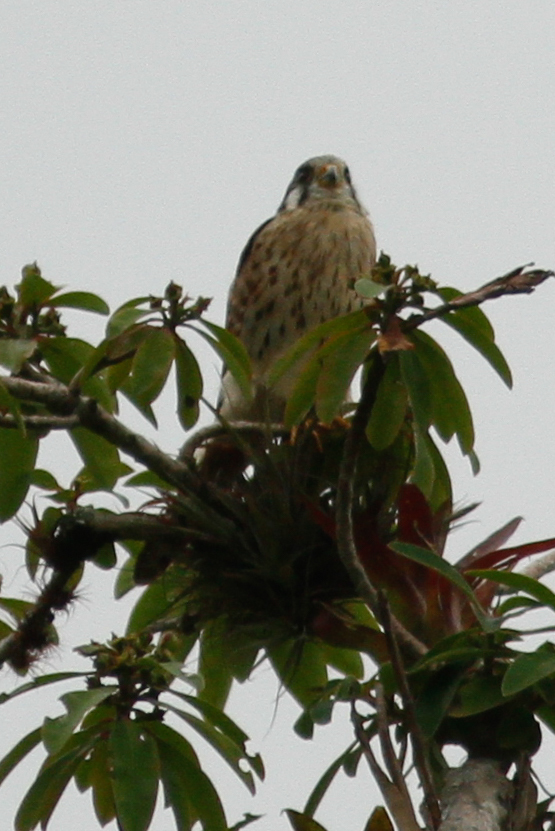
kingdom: Animalia
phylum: Chordata
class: Aves
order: Falconiformes
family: Falconidae
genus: Falco
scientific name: Falco sparverius
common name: American kestrel
